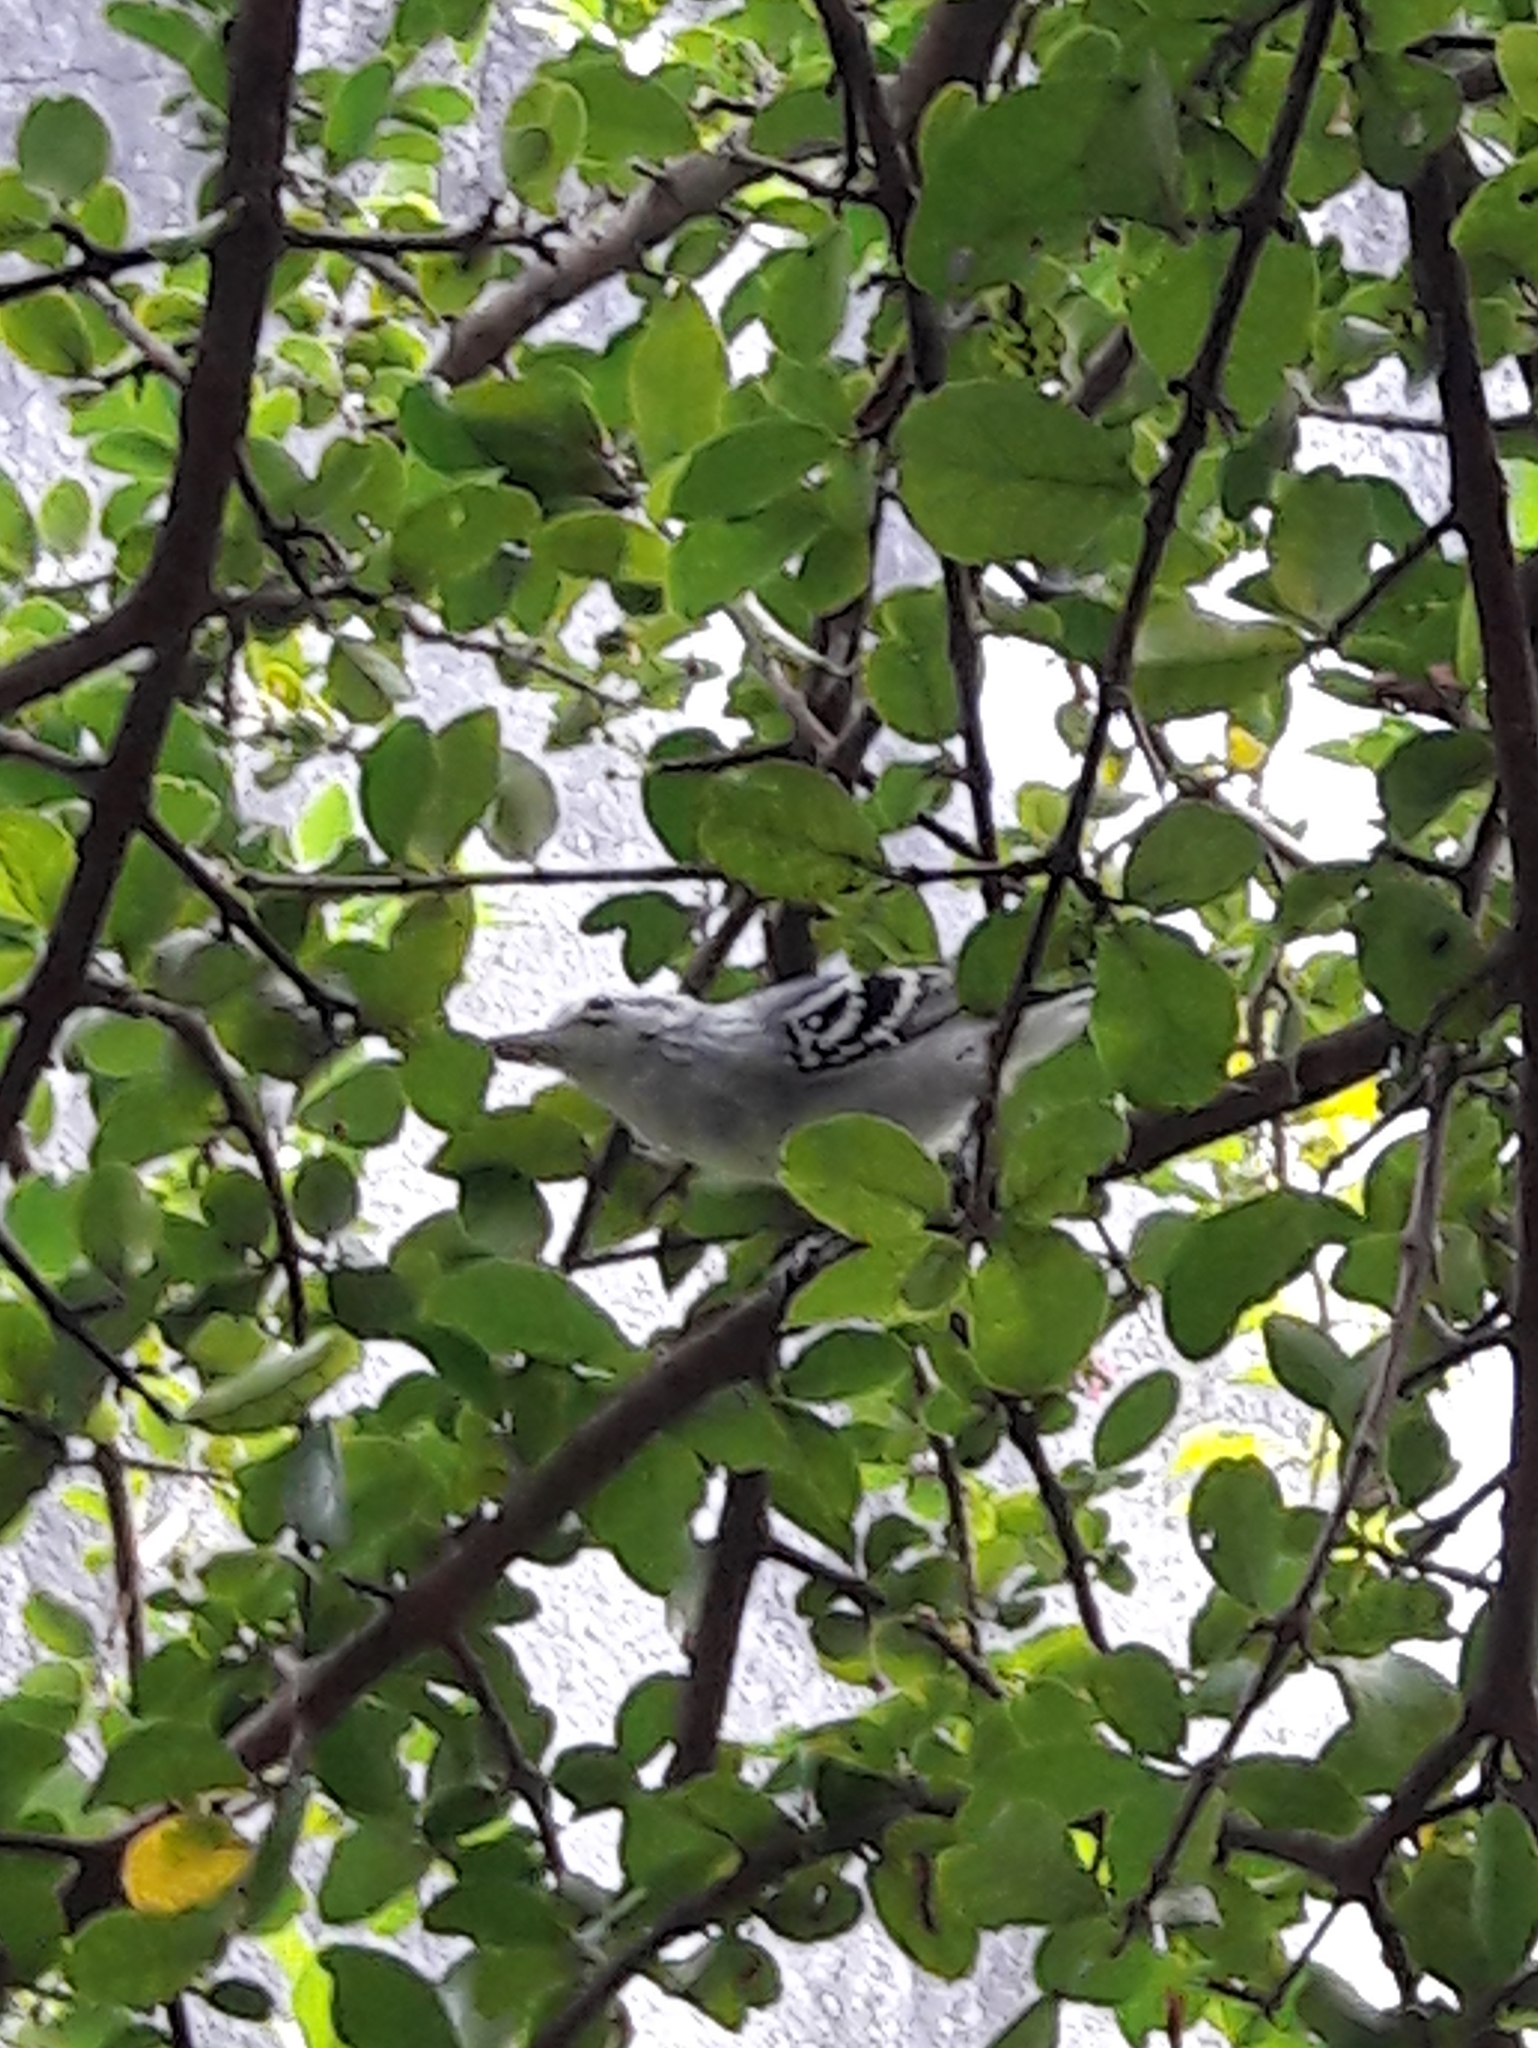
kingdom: Animalia
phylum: Chordata
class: Aves
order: Passeriformes
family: Thamnophilidae
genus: Herpsilochmus
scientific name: Herpsilochmus longirostris
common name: Large-billed antwren
